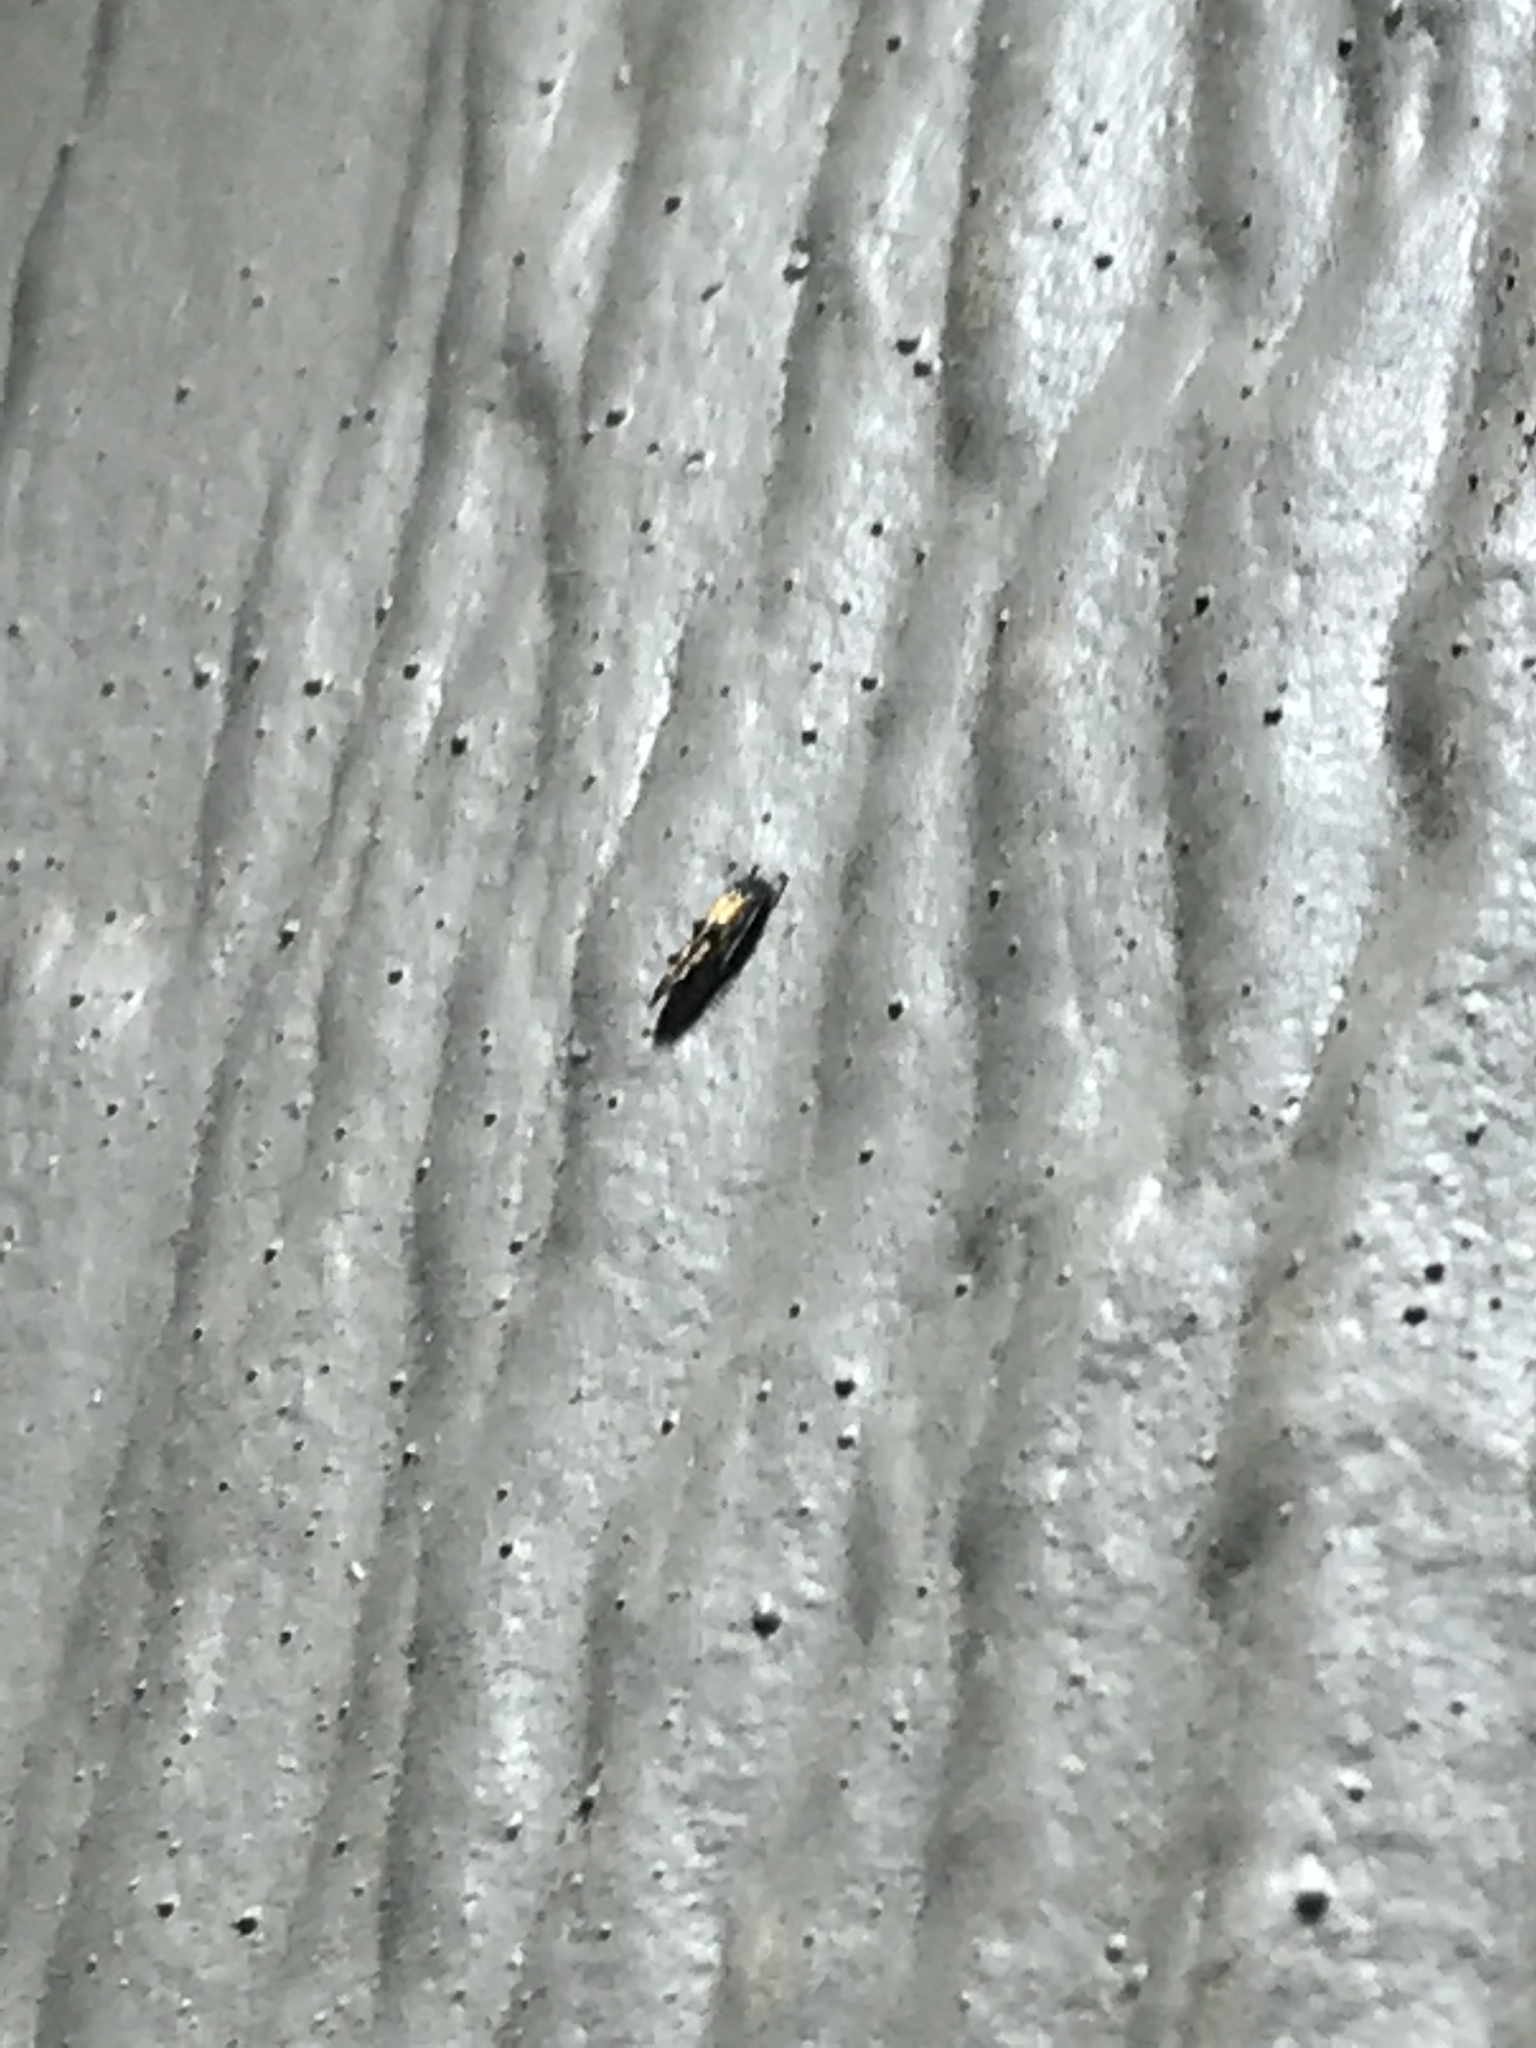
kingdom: Animalia
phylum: Arthropoda
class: Insecta
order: Lepidoptera
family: Cosmopterigidae
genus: Walshia
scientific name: Walshia miscecolorella
